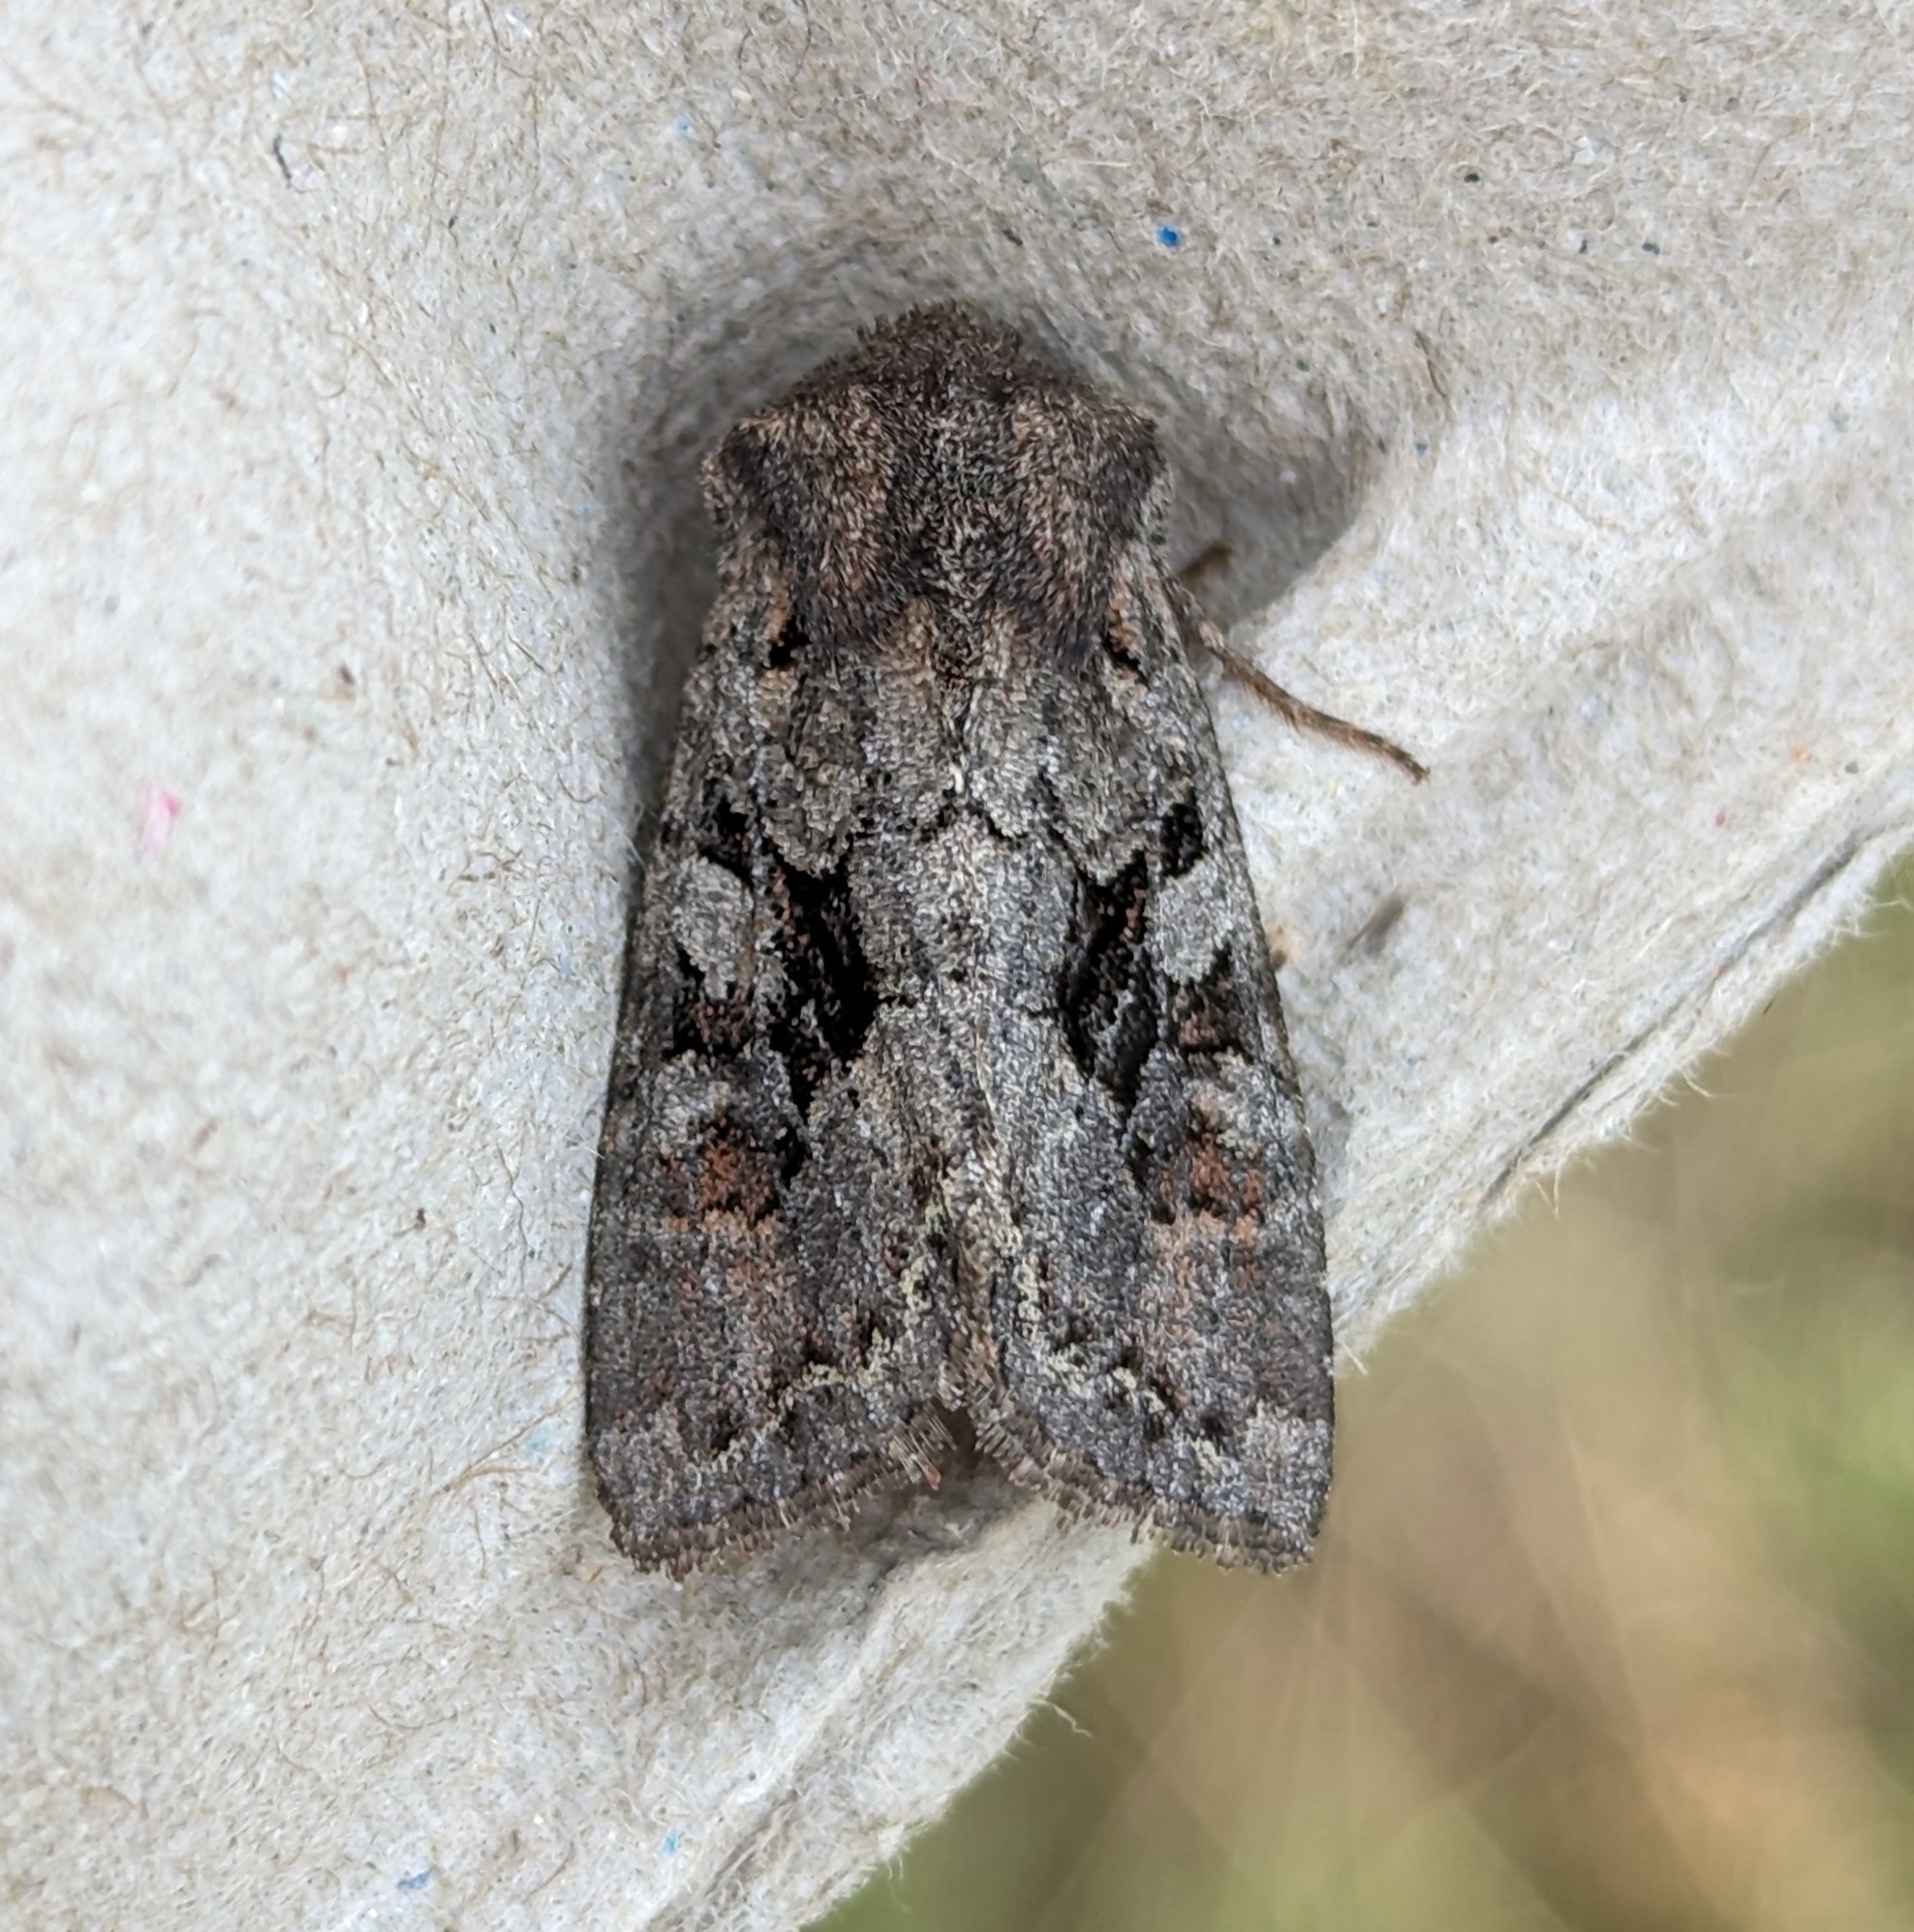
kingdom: Animalia
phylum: Arthropoda
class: Insecta
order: Lepidoptera
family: Noctuidae
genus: Orthosia
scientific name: Orthosia segregata
